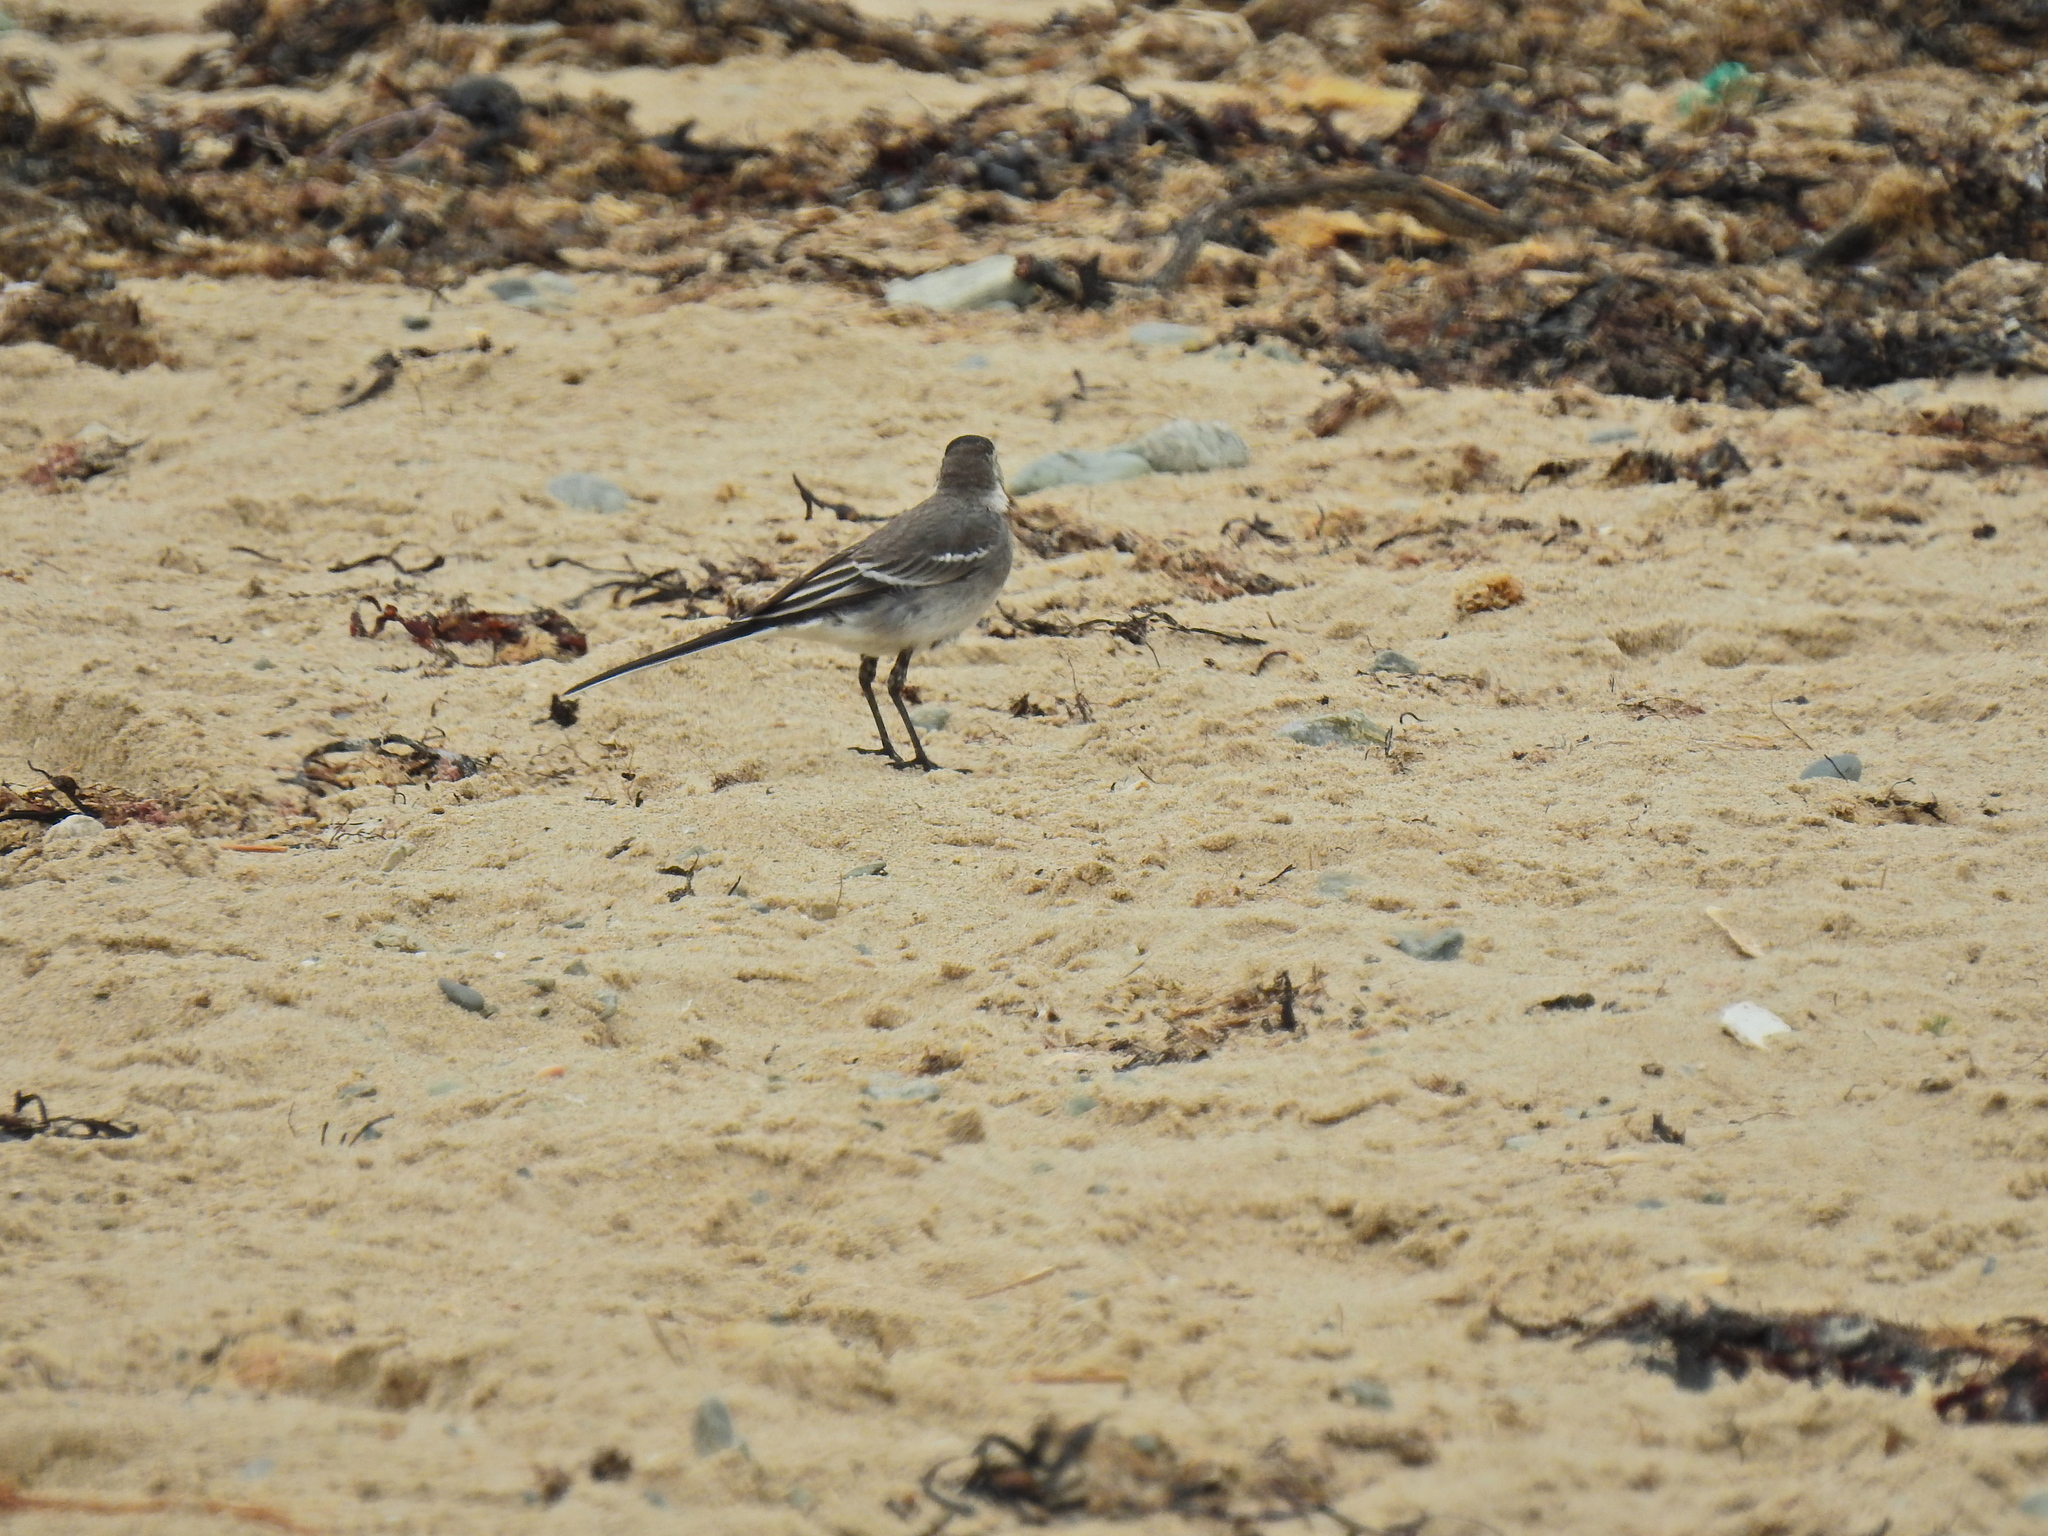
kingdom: Animalia
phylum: Chordata
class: Aves
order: Passeriformes
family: Motacillidae
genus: Motacilla
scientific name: Motacilla alba
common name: White wagtail
